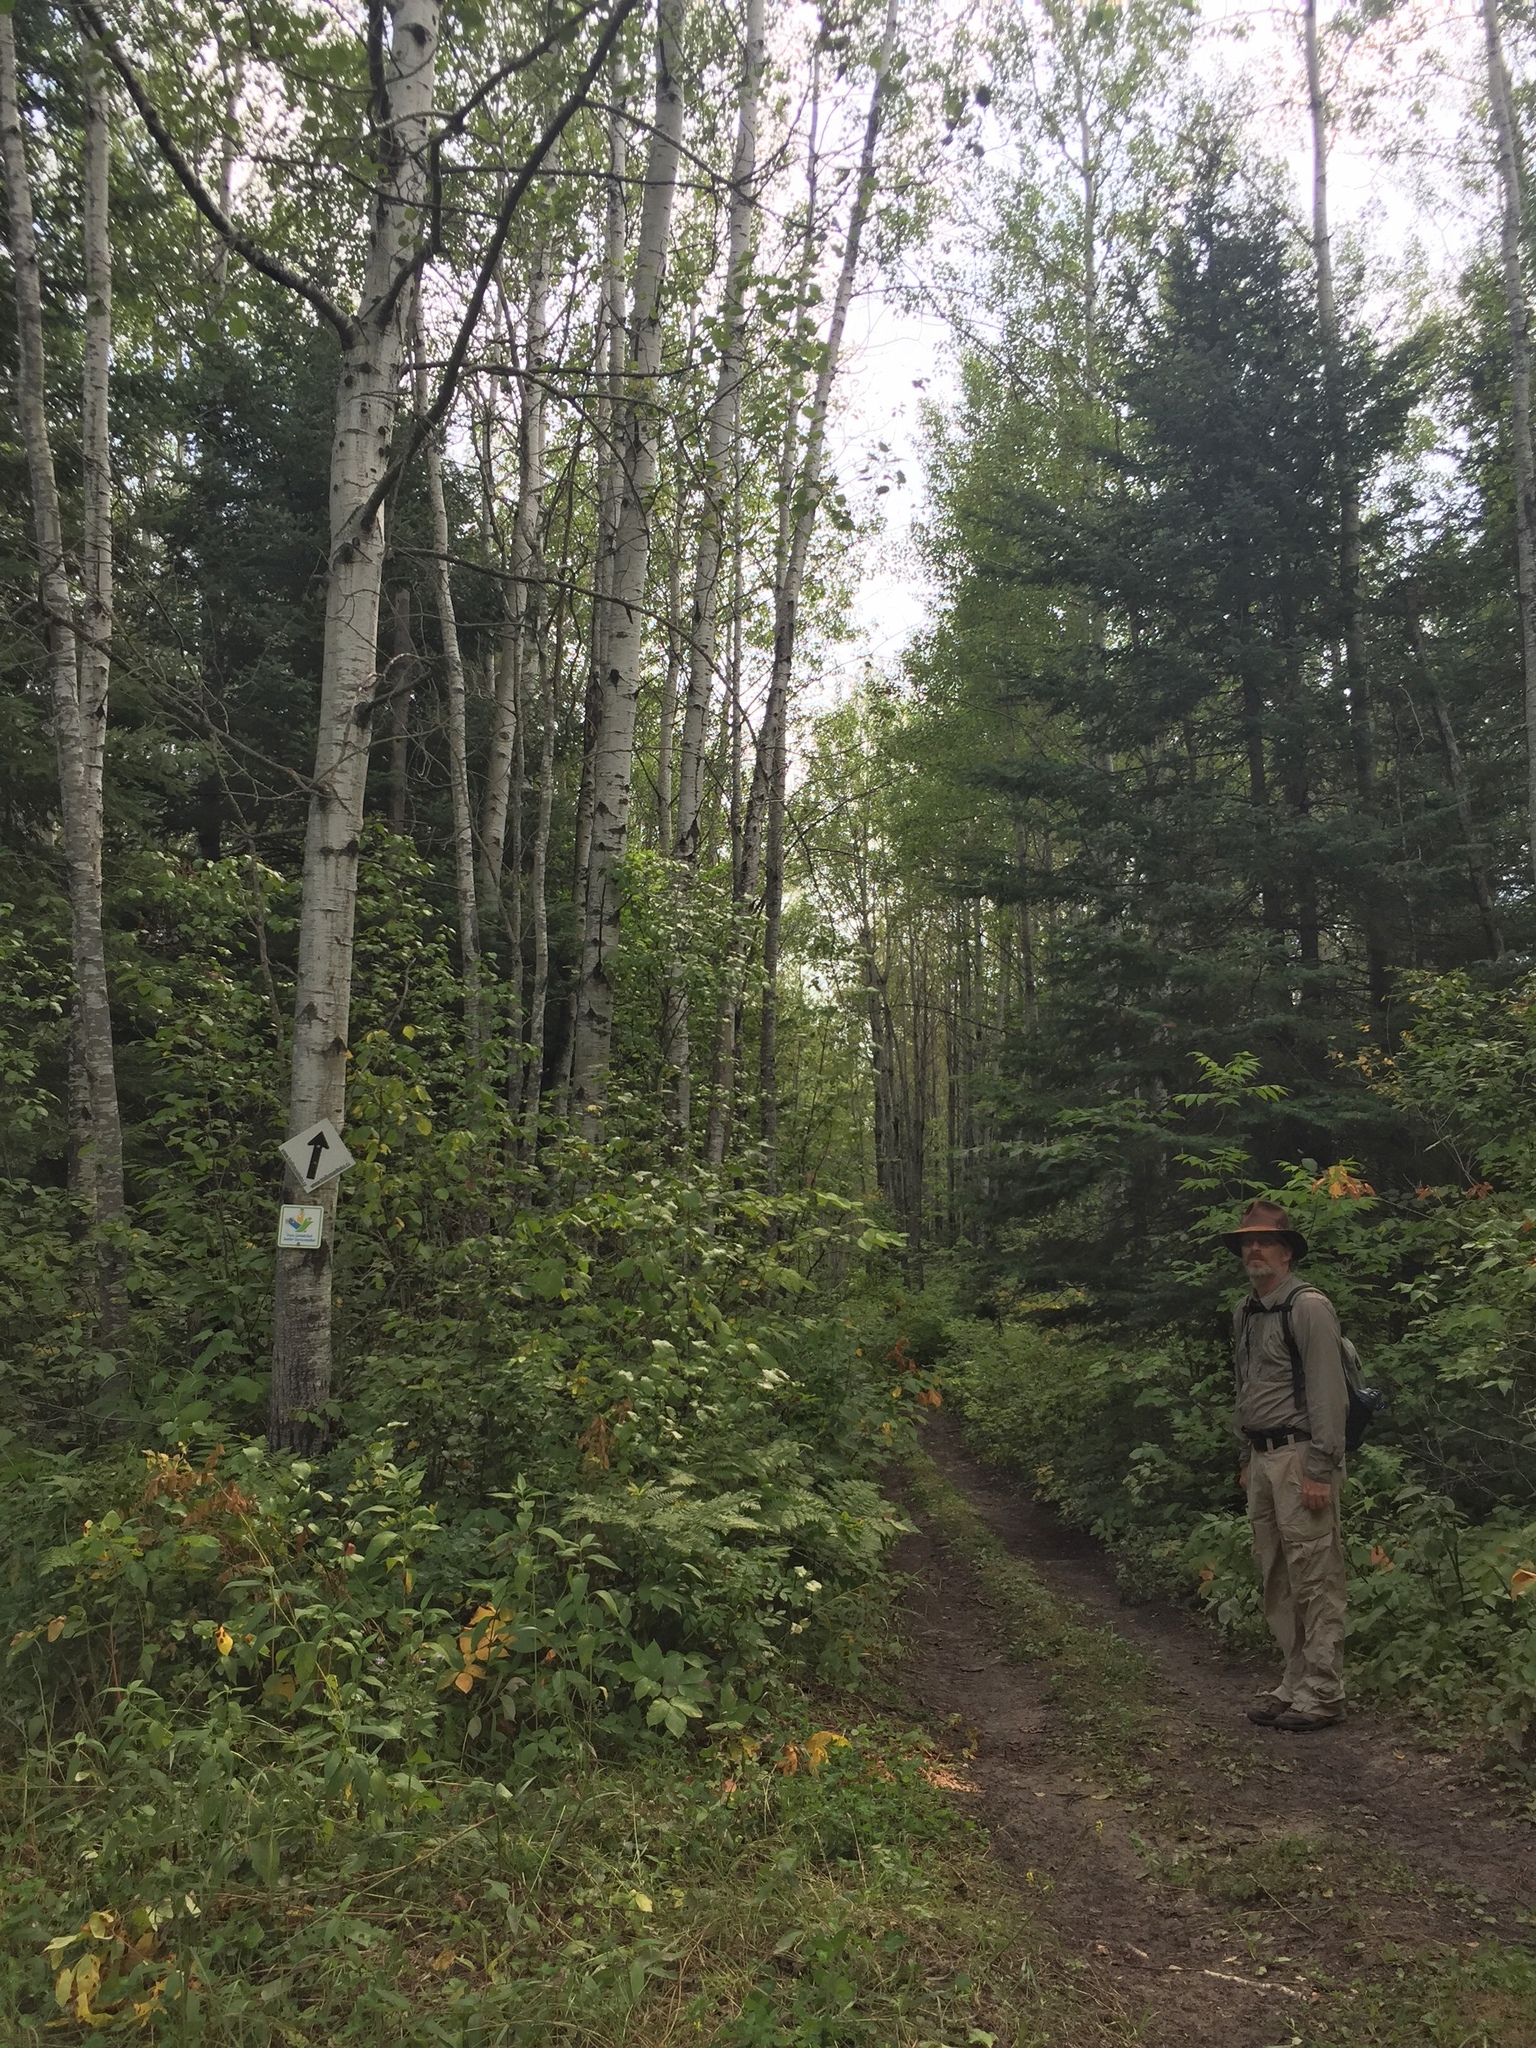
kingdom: Plantae
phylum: Tracheophyta
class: Magnoliopsida
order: Malpighiales
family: Salicaceae
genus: Populus
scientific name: Populus tremuloides
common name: Quaking aspen
